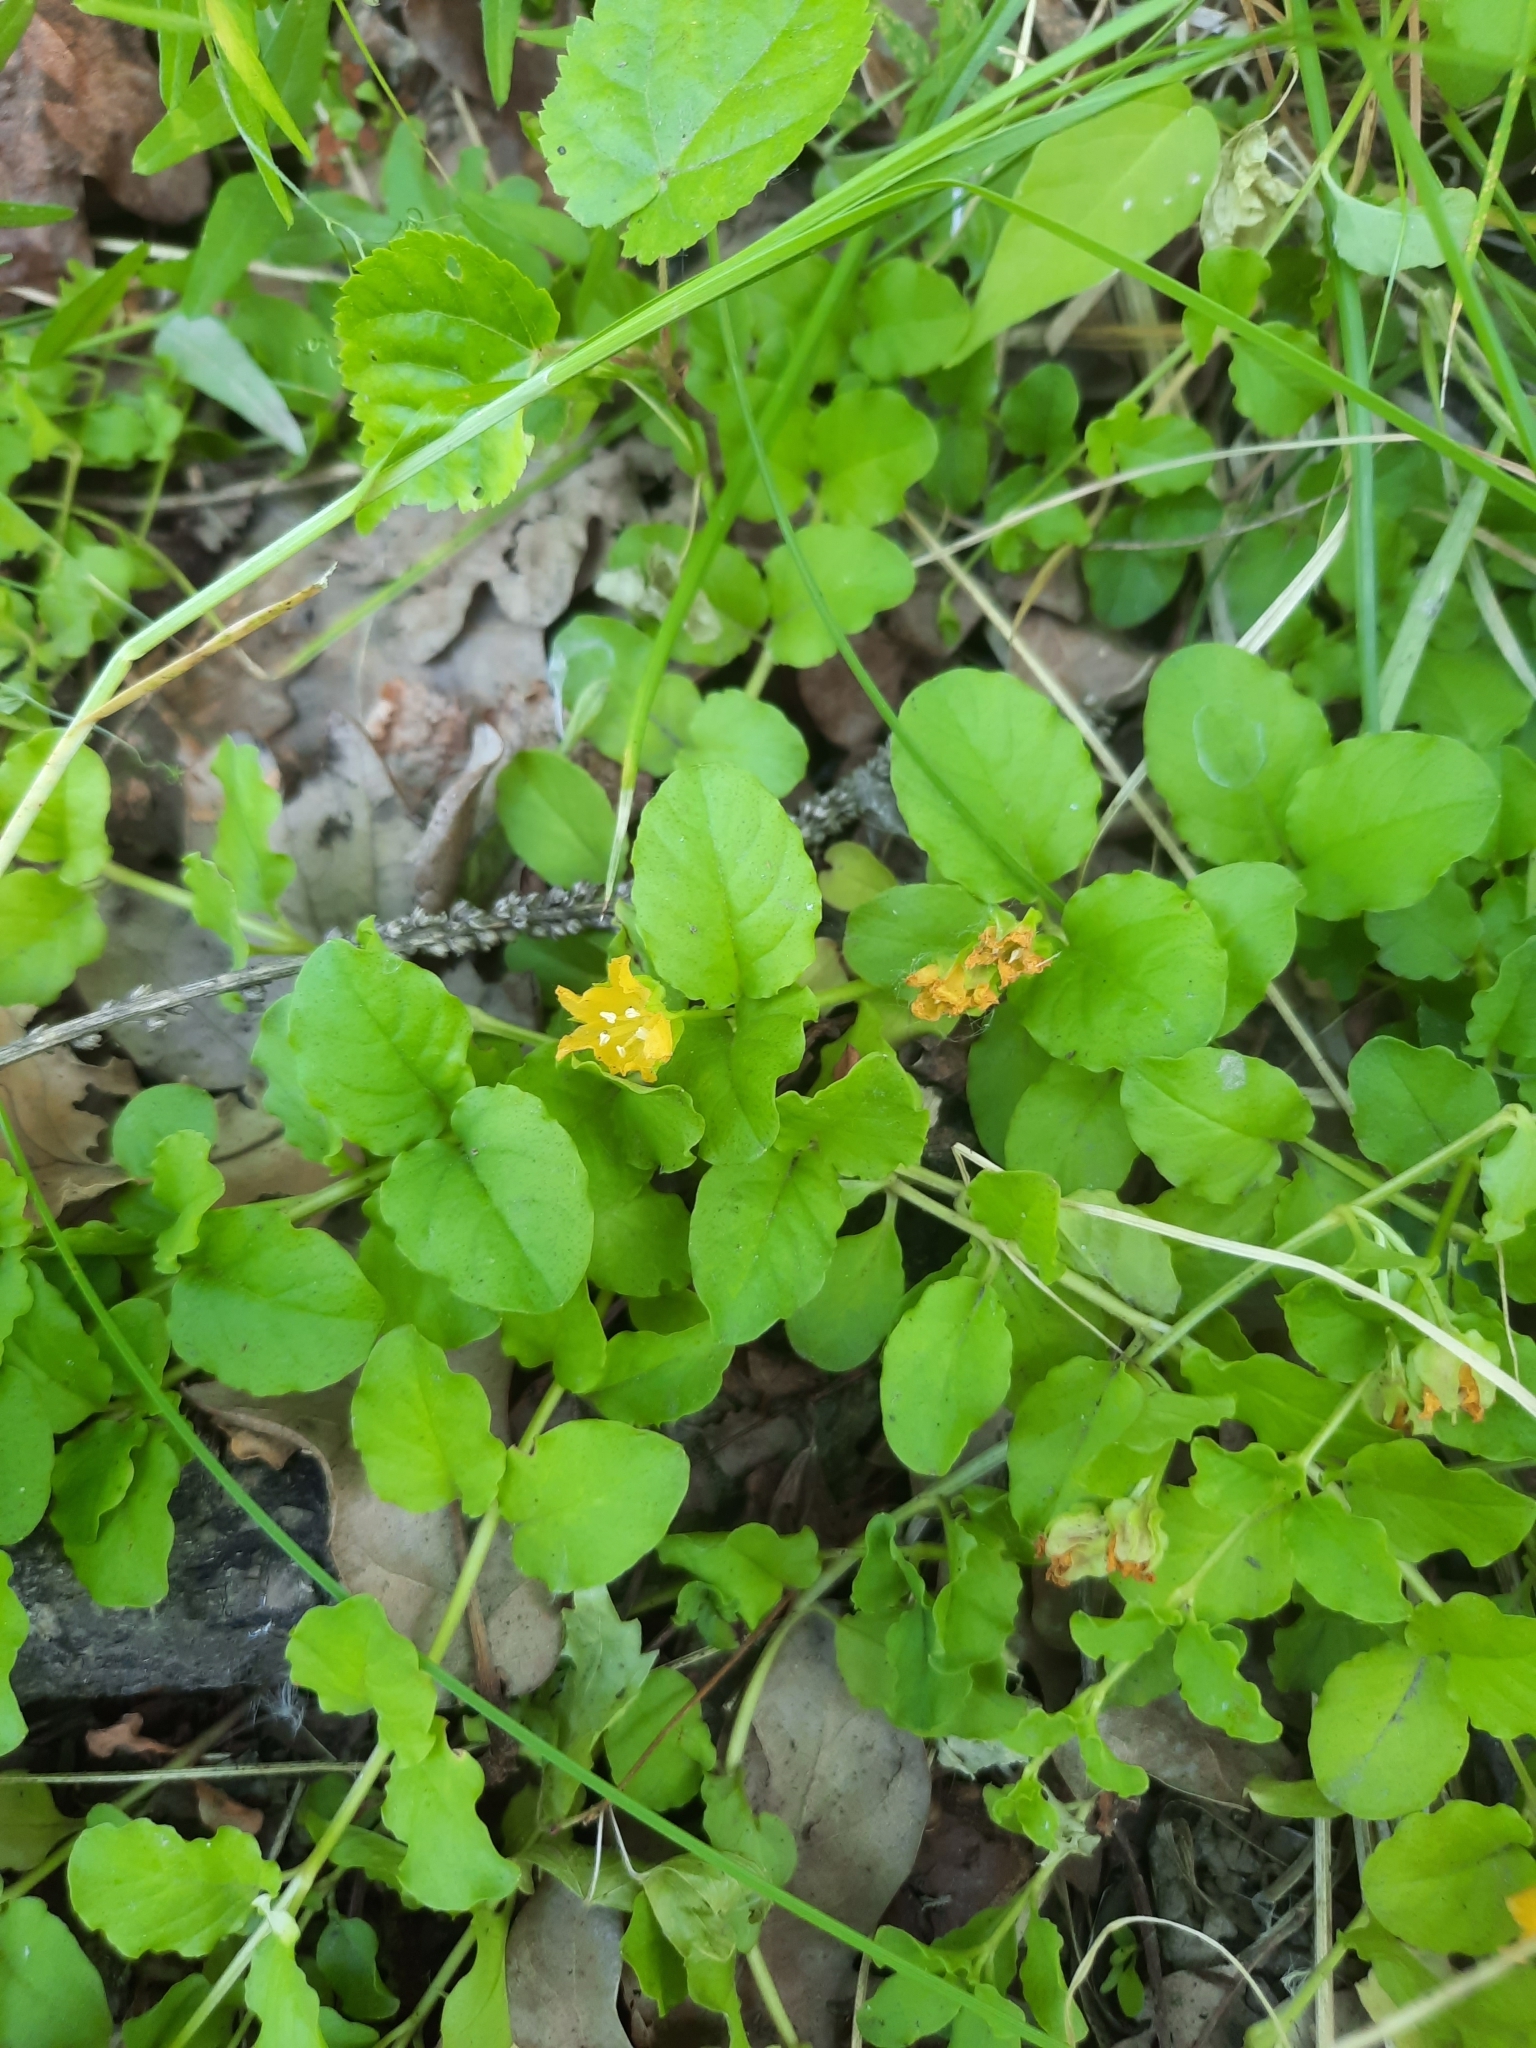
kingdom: Plantae
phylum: Tracheophyta
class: Magnoliopsida
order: Ericales
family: Primulaceae
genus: Lysimachia
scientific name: Lysimachia nummularia
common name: Moneywort
